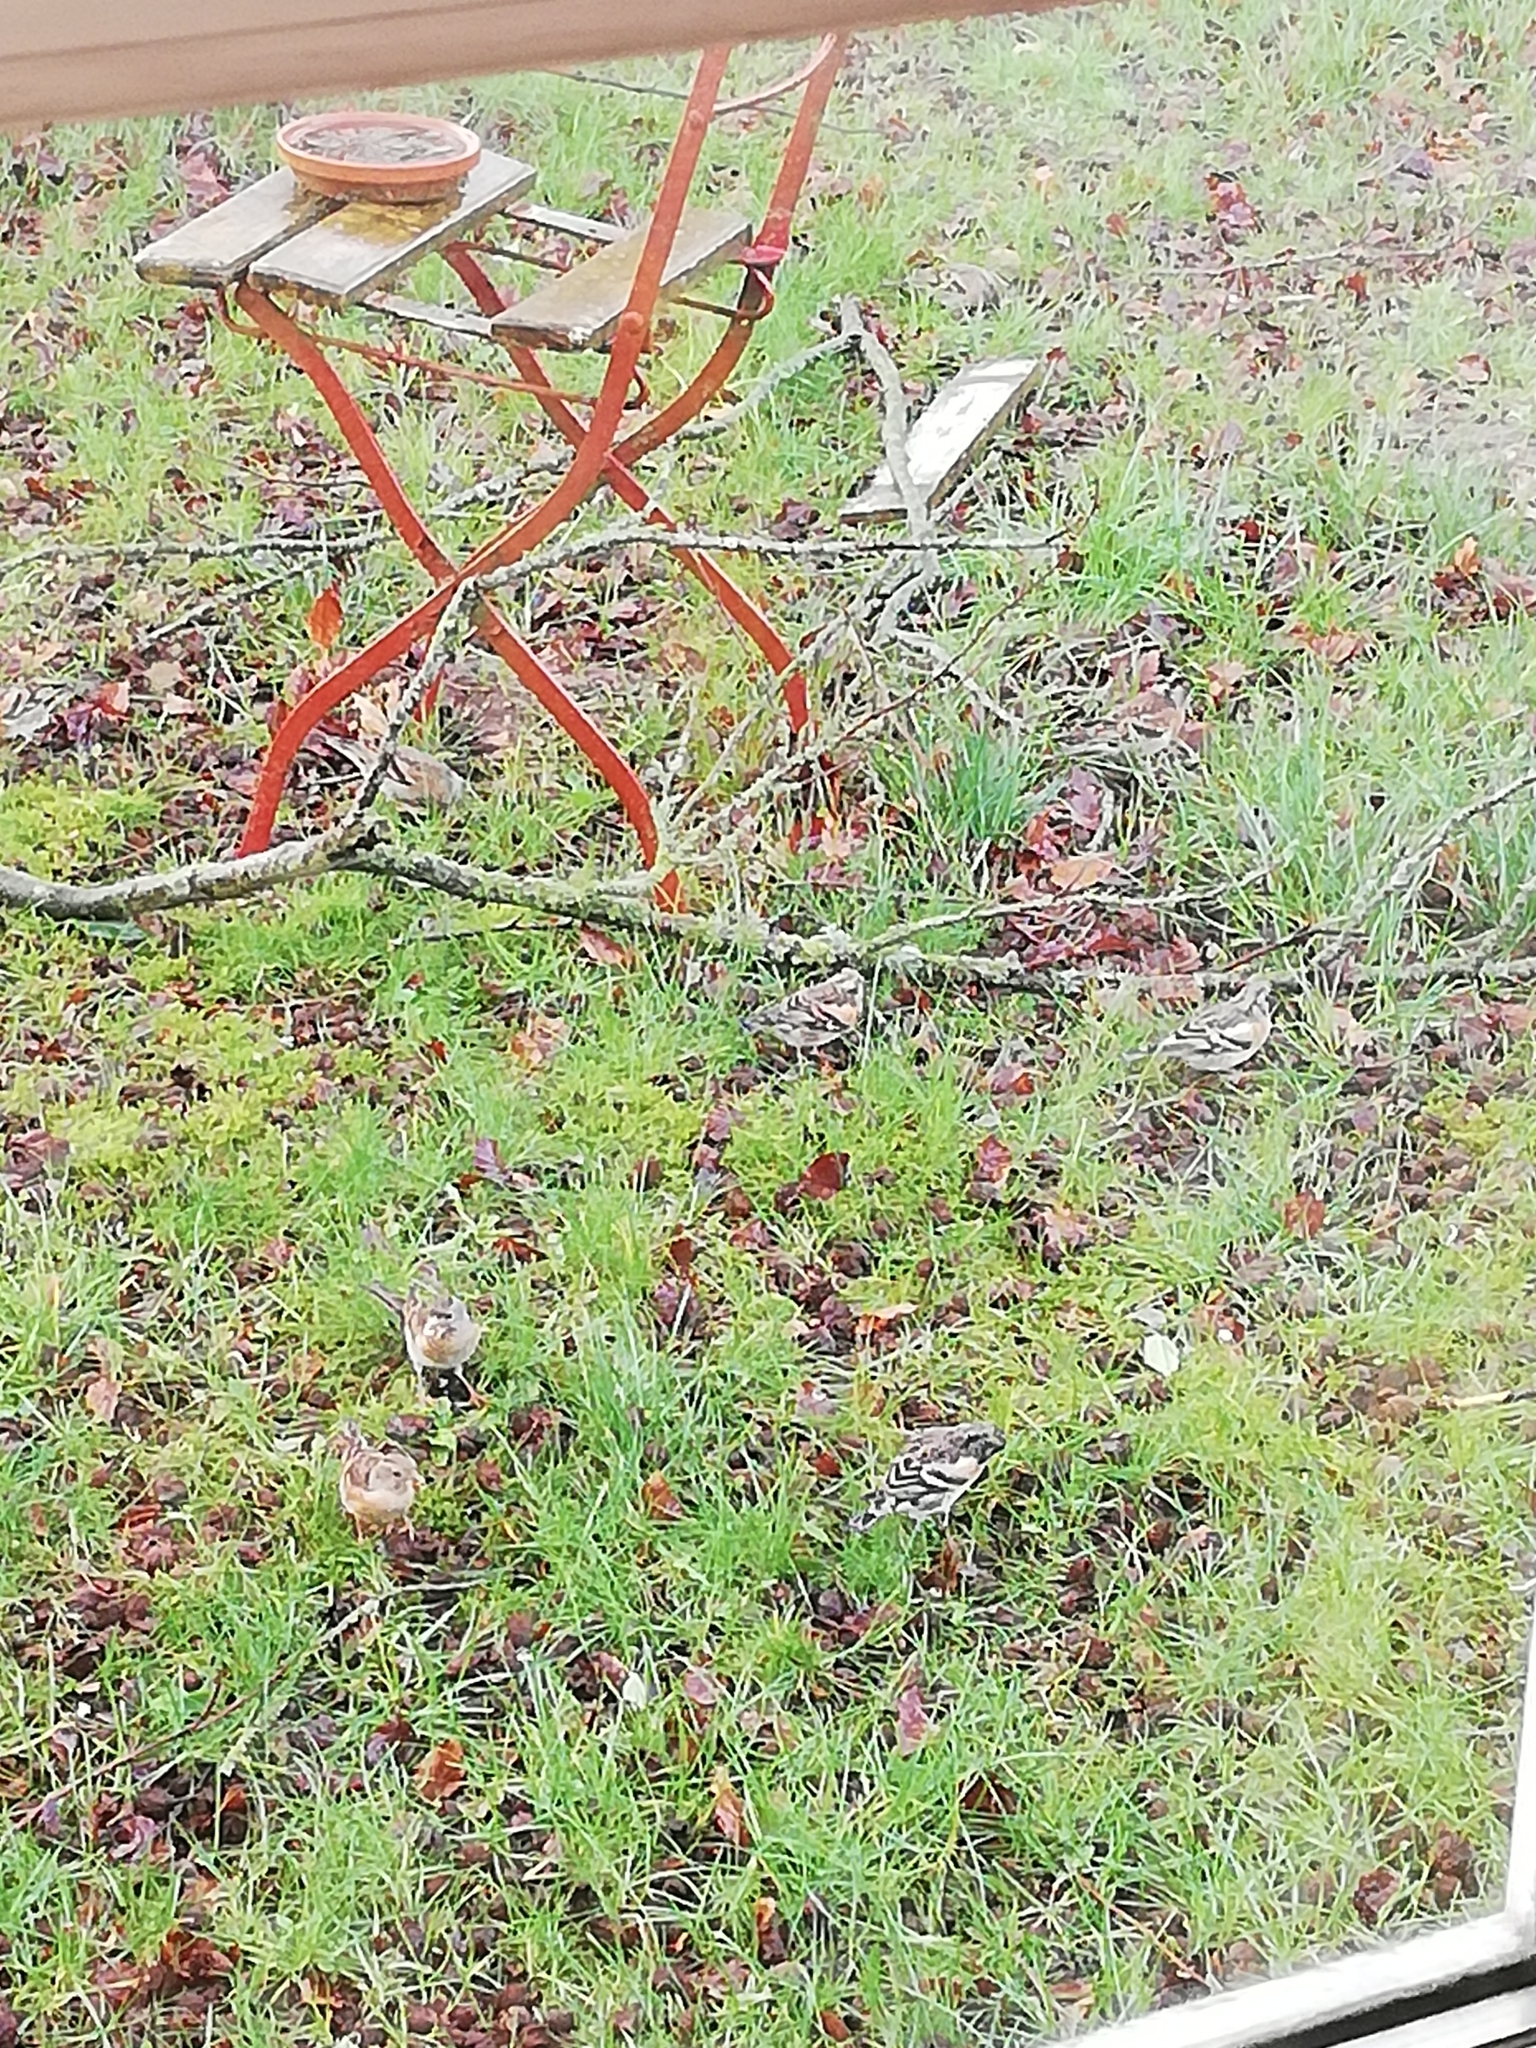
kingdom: Animalia
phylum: Chordata
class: Aves
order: Passeriformes
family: Fringillidae
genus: Fringilla
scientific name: Fringilla montifringilla
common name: Brambling
